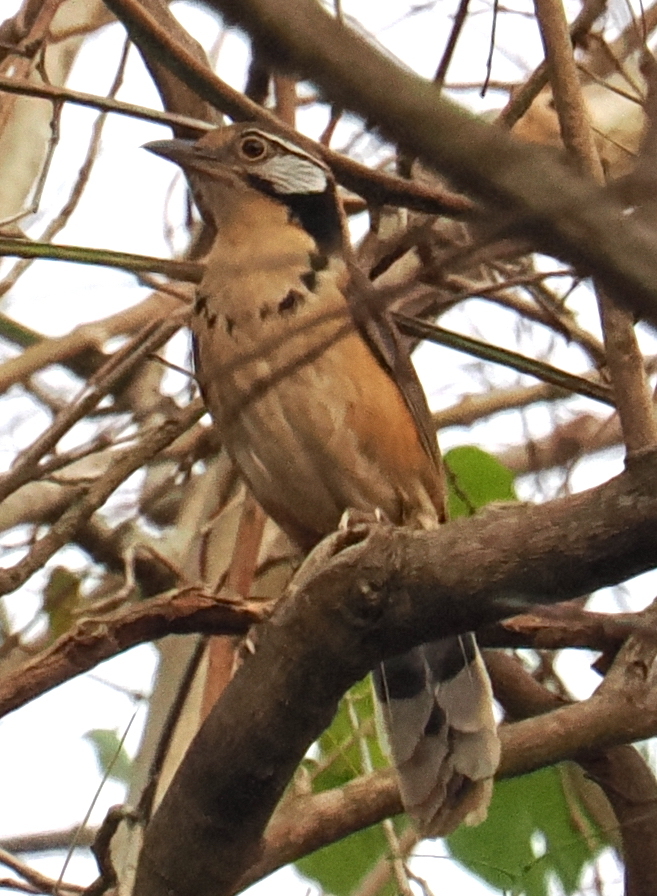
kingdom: Animalia
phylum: Chordata
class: Aves
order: Passeriformes
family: Leiothrichidae
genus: Garrulax
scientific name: Garrulax pectoralis
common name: Greater necklaced laughingthrush
